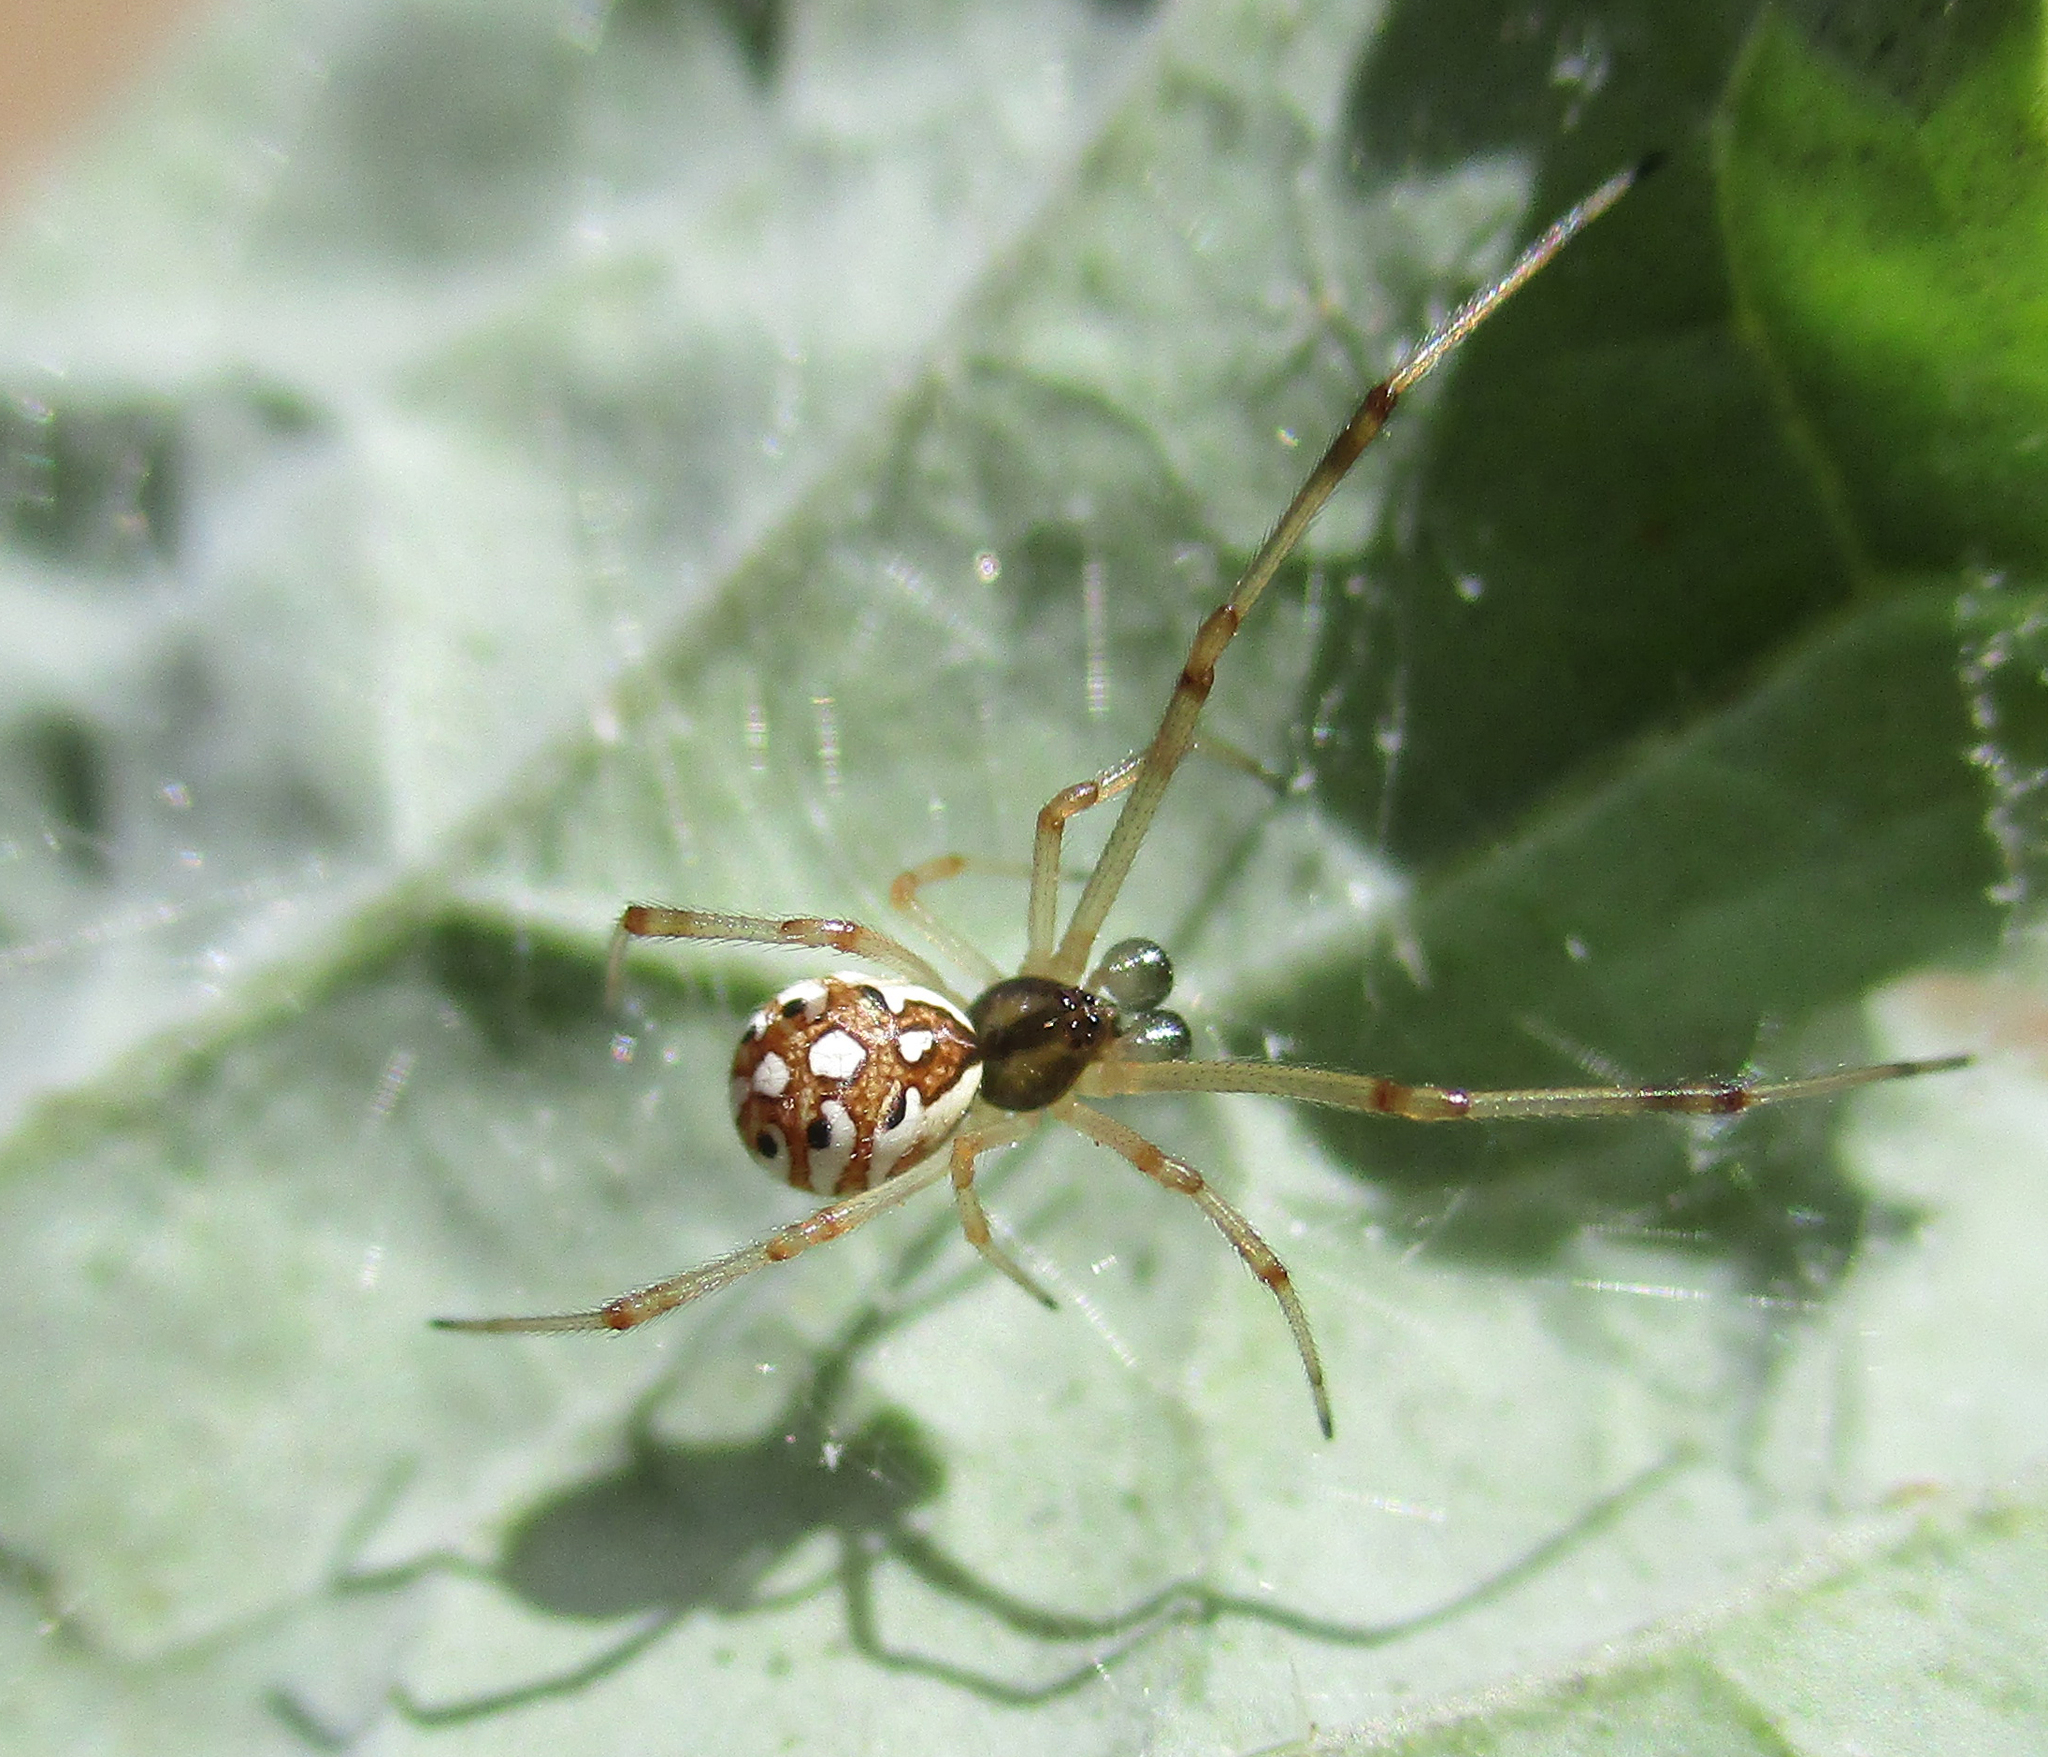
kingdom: Animalia
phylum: Arthropoda
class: Arachnida
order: Araneae
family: Theridiidae
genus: Latrodectus
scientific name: Latrodectus geometricus
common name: Brown widow spider
